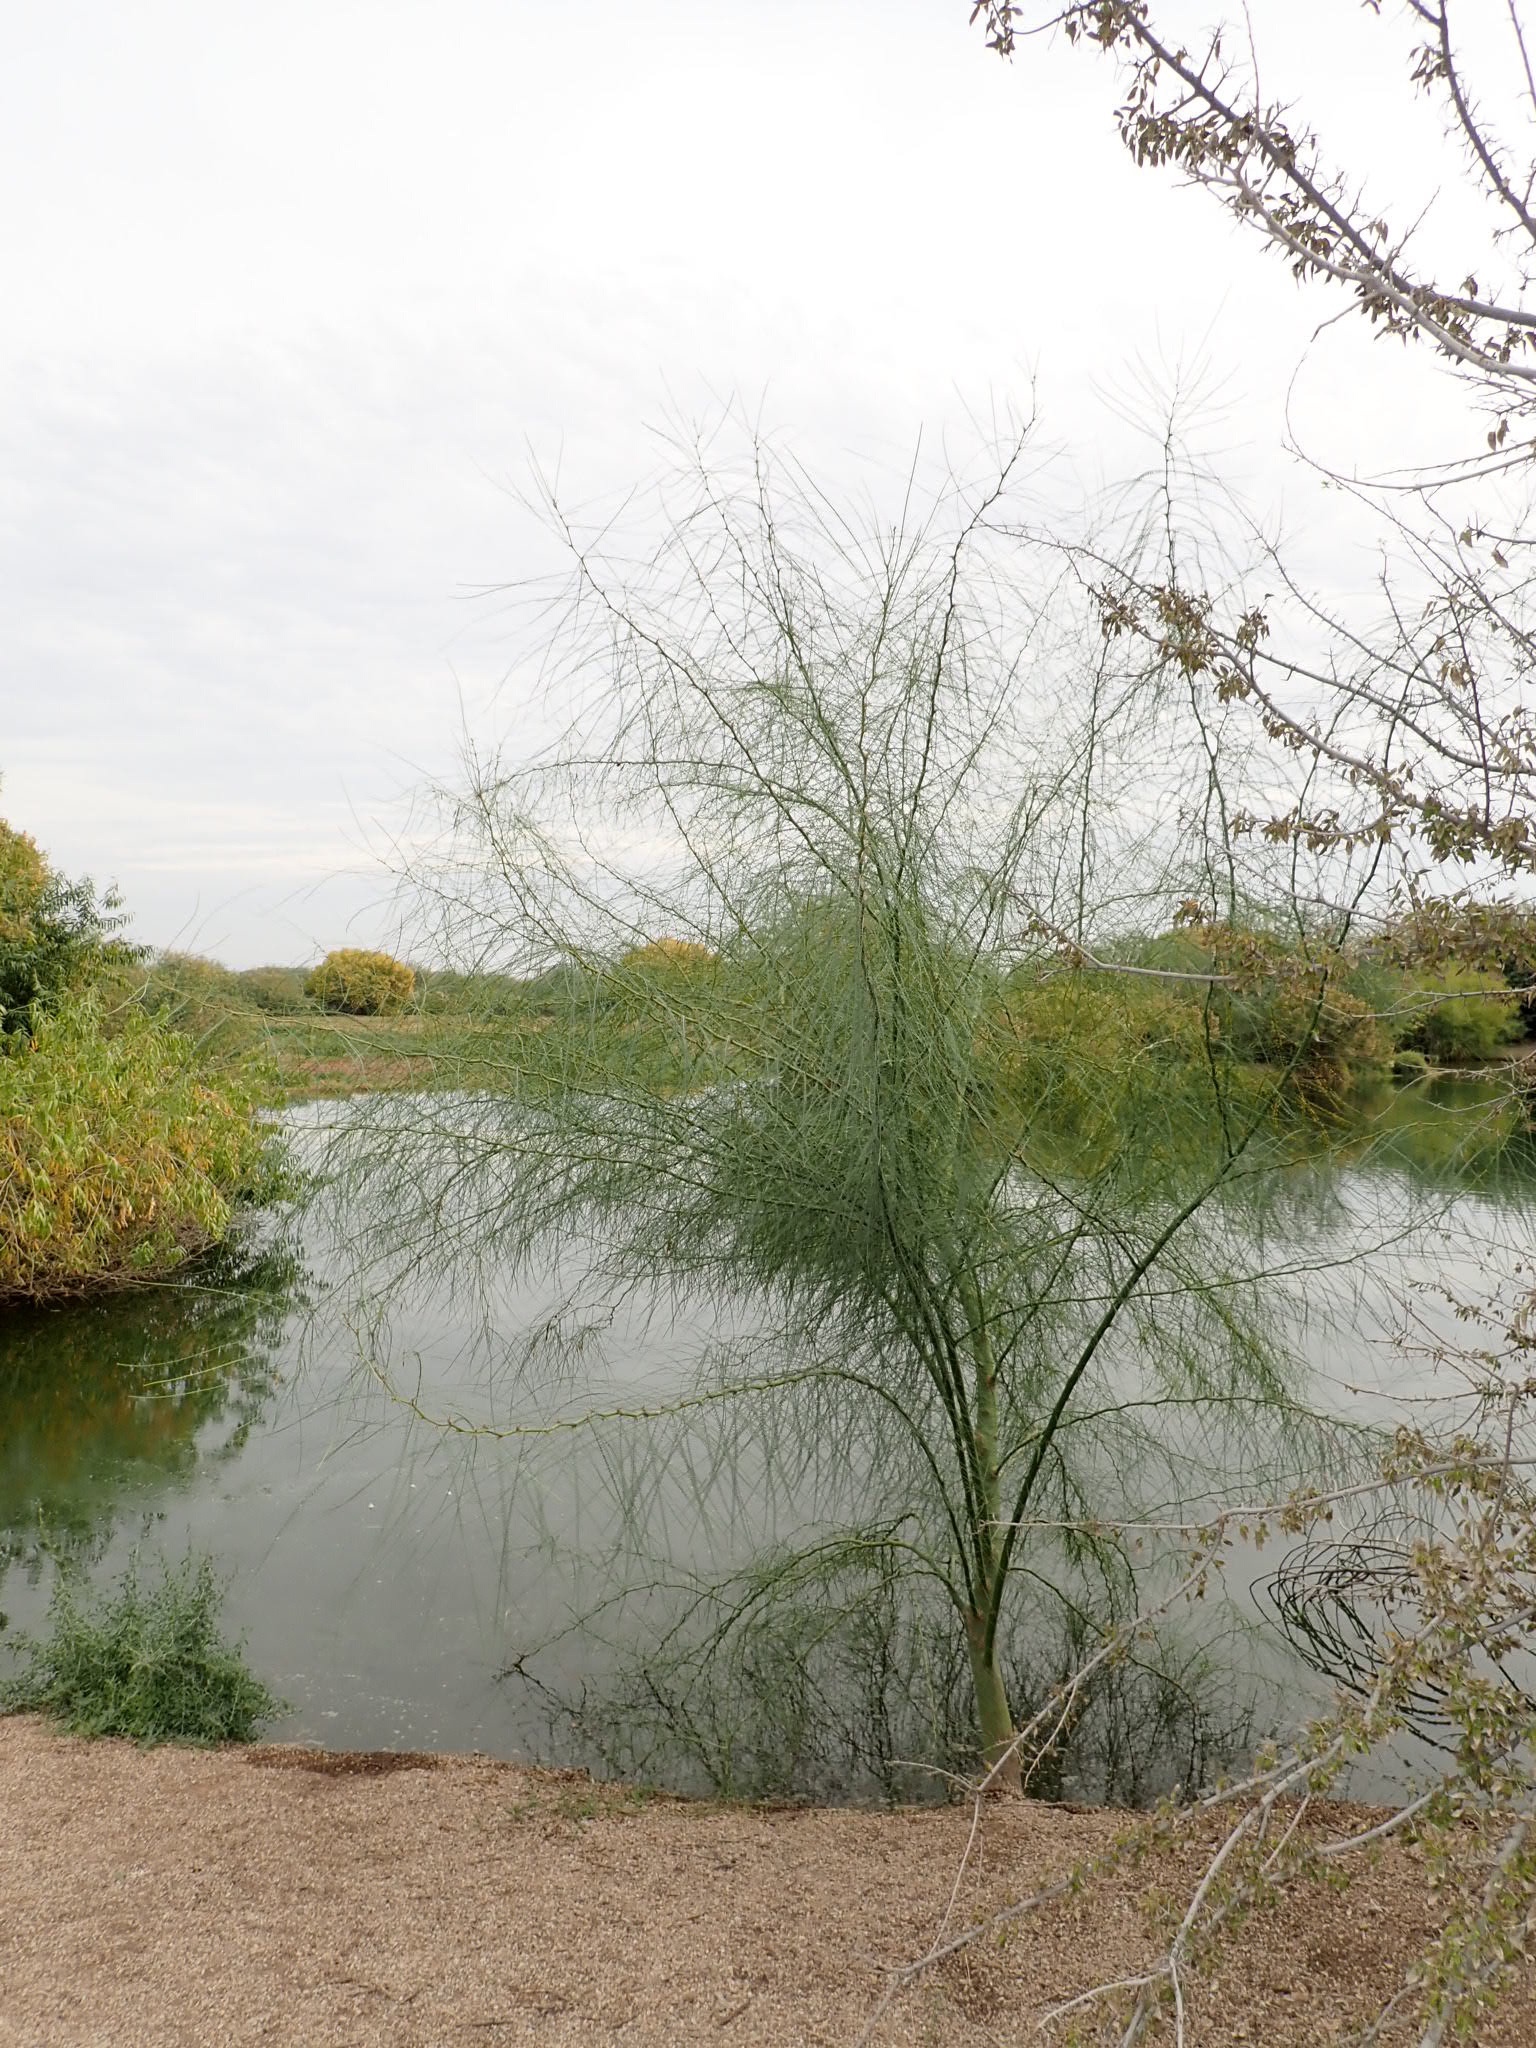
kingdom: Plantae
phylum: Tracheophyta
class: Magnoliopsida
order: Fabales
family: Fabaceae
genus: Parkinsonia
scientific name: Parkinsonia aculeata
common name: Jerusalem thorn
